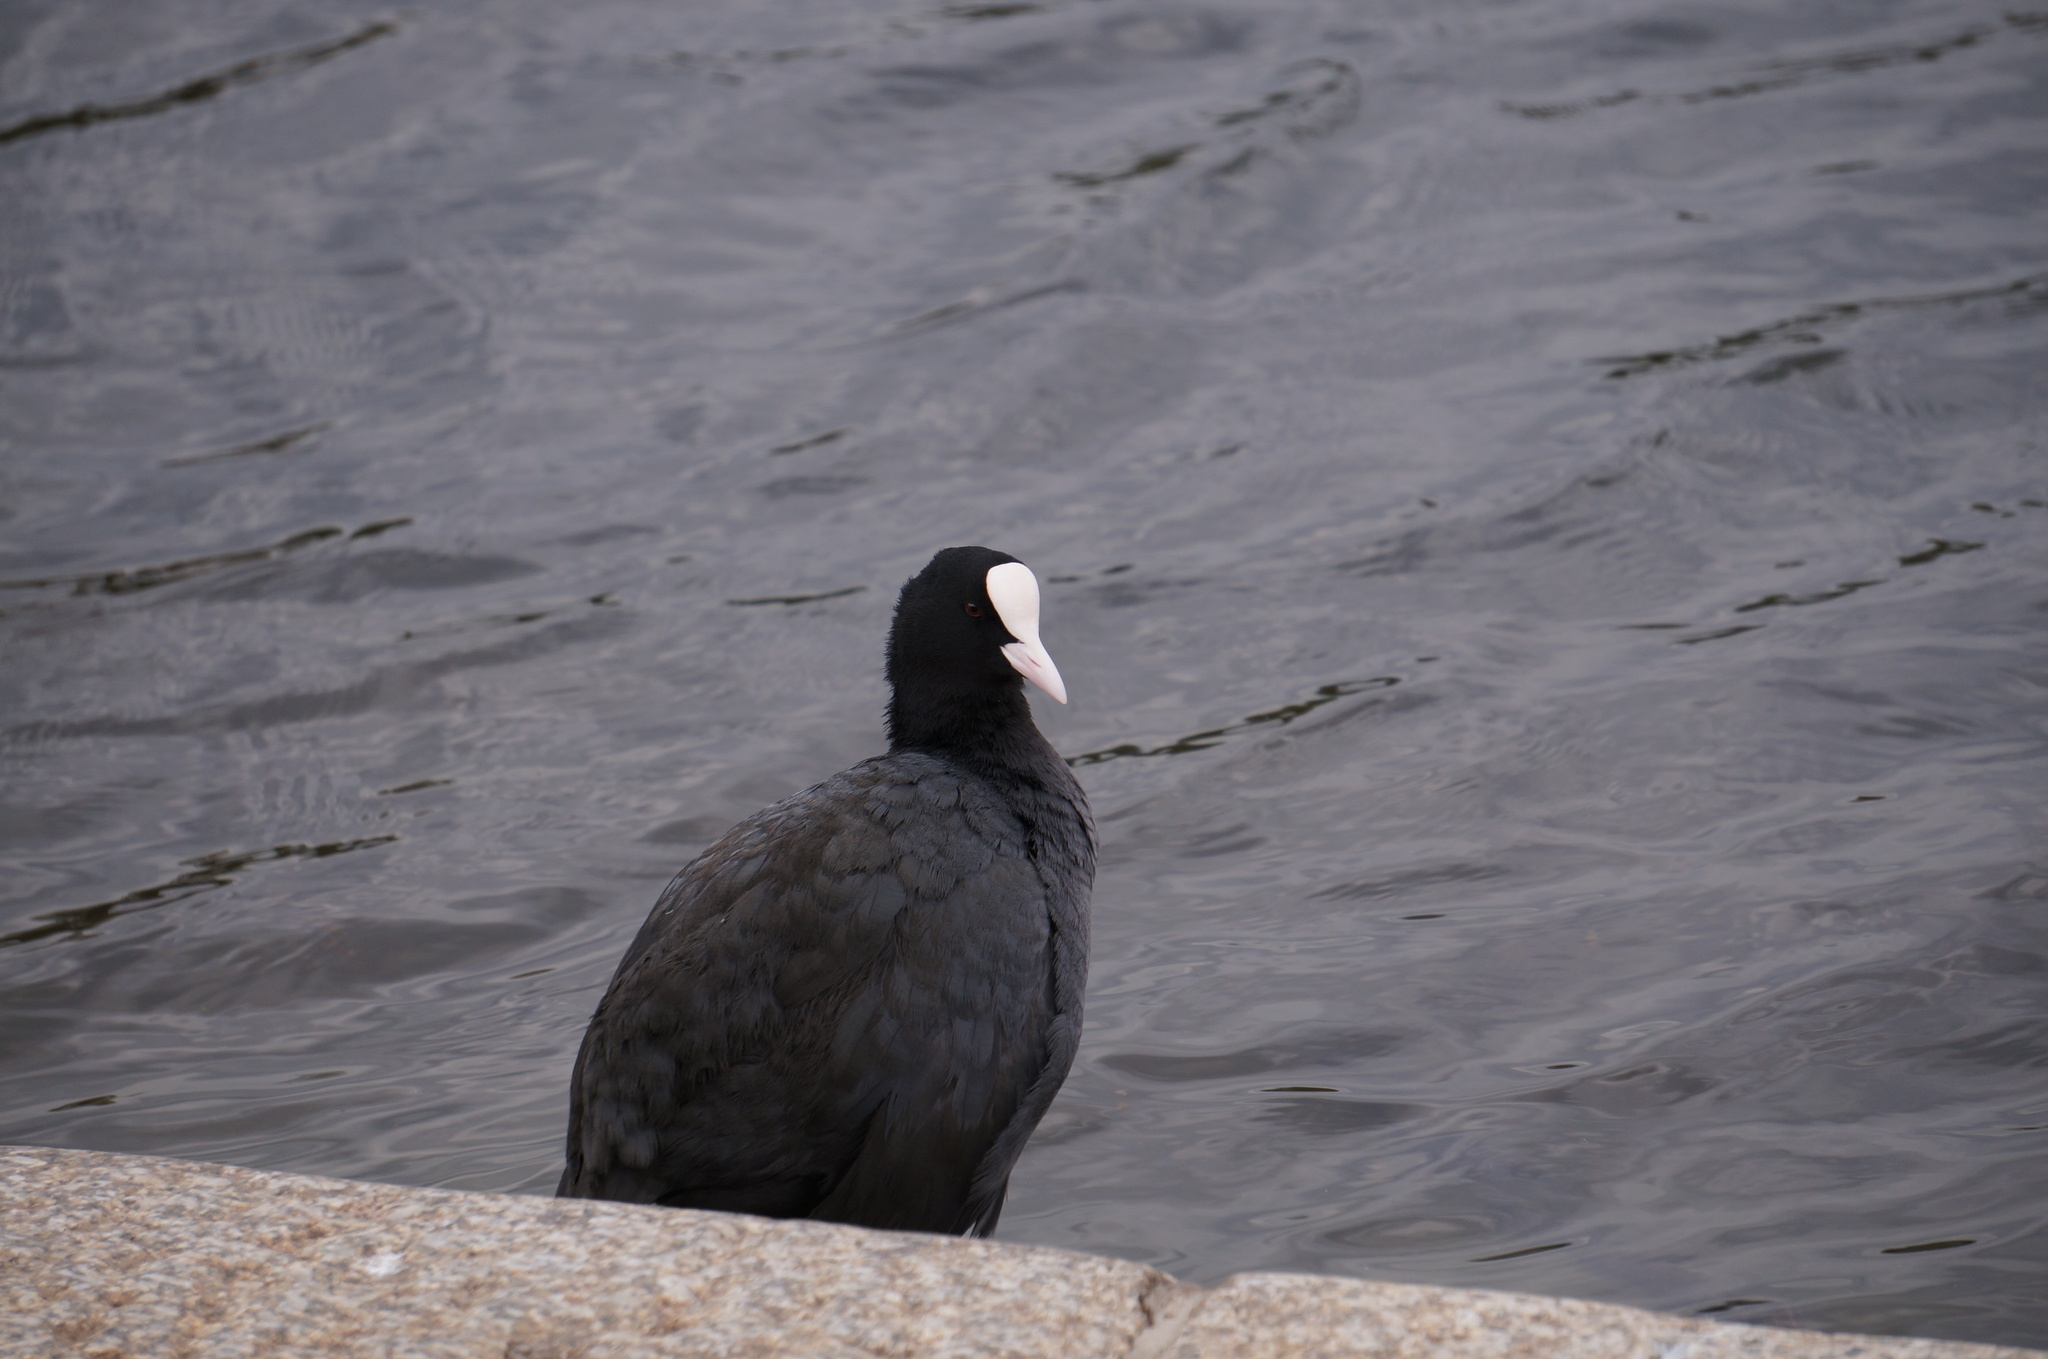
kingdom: Animalia
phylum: Chordata
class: Aves
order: Gruiformes
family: Rallidae
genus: Fulica
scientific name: Fulica atra
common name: Eurasian coot
